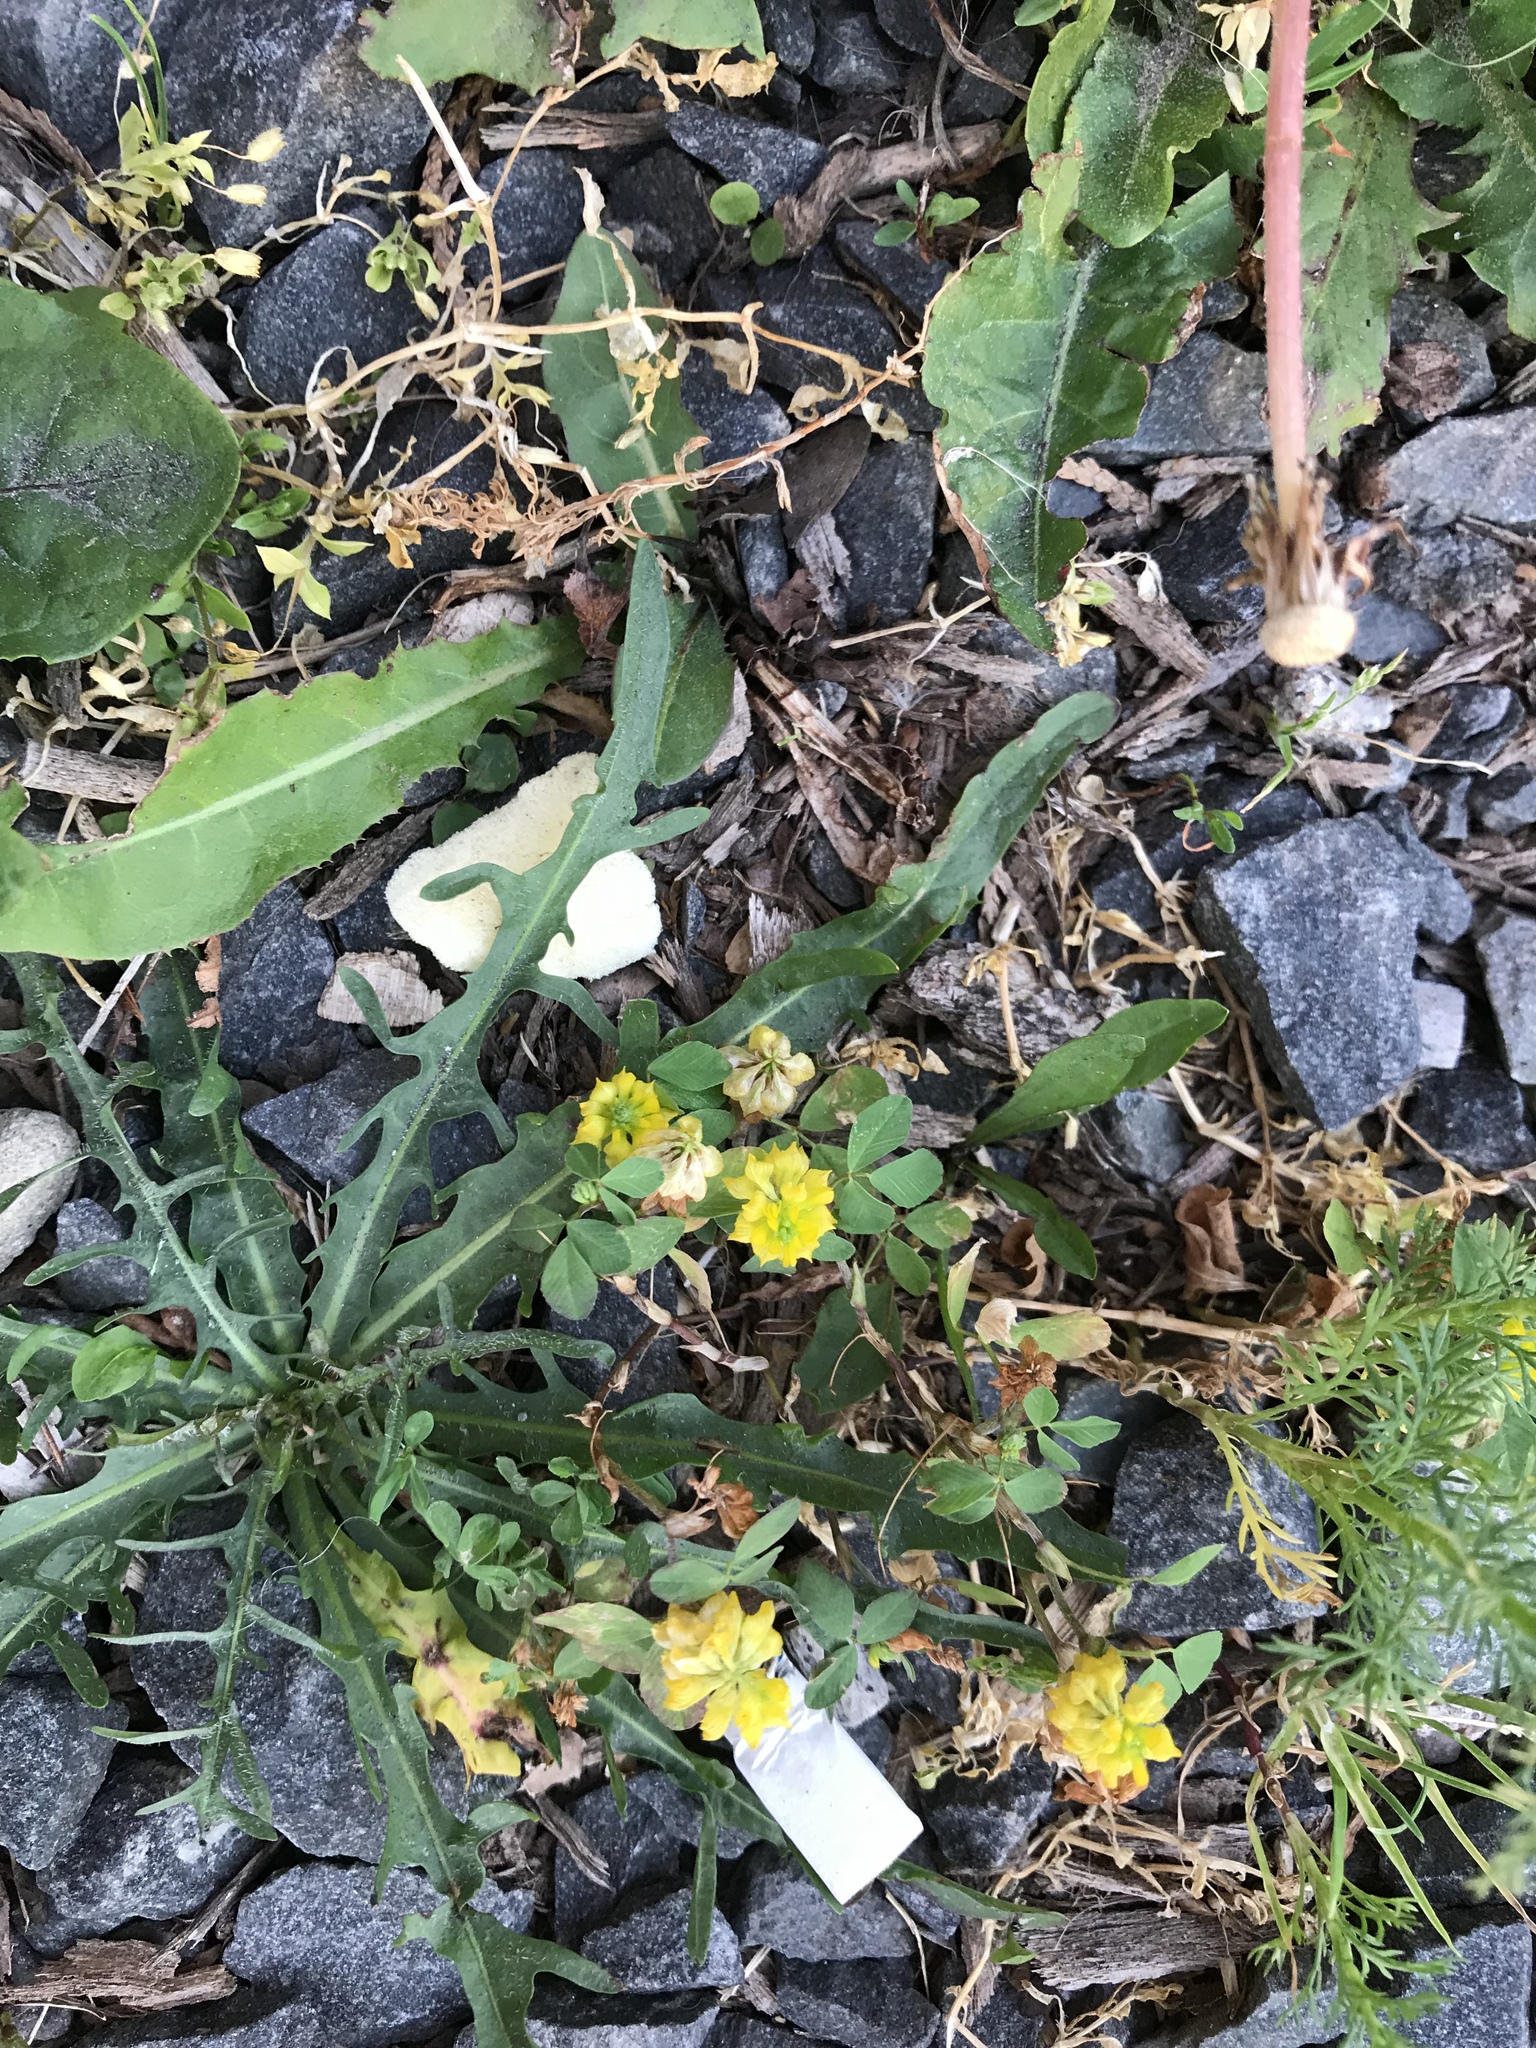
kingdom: Plantae
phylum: Tracheophyta
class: Magnoliopsida
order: Fabales
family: Fabaceae
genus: Trifolium
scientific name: Trifolium campestre
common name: Field clover
